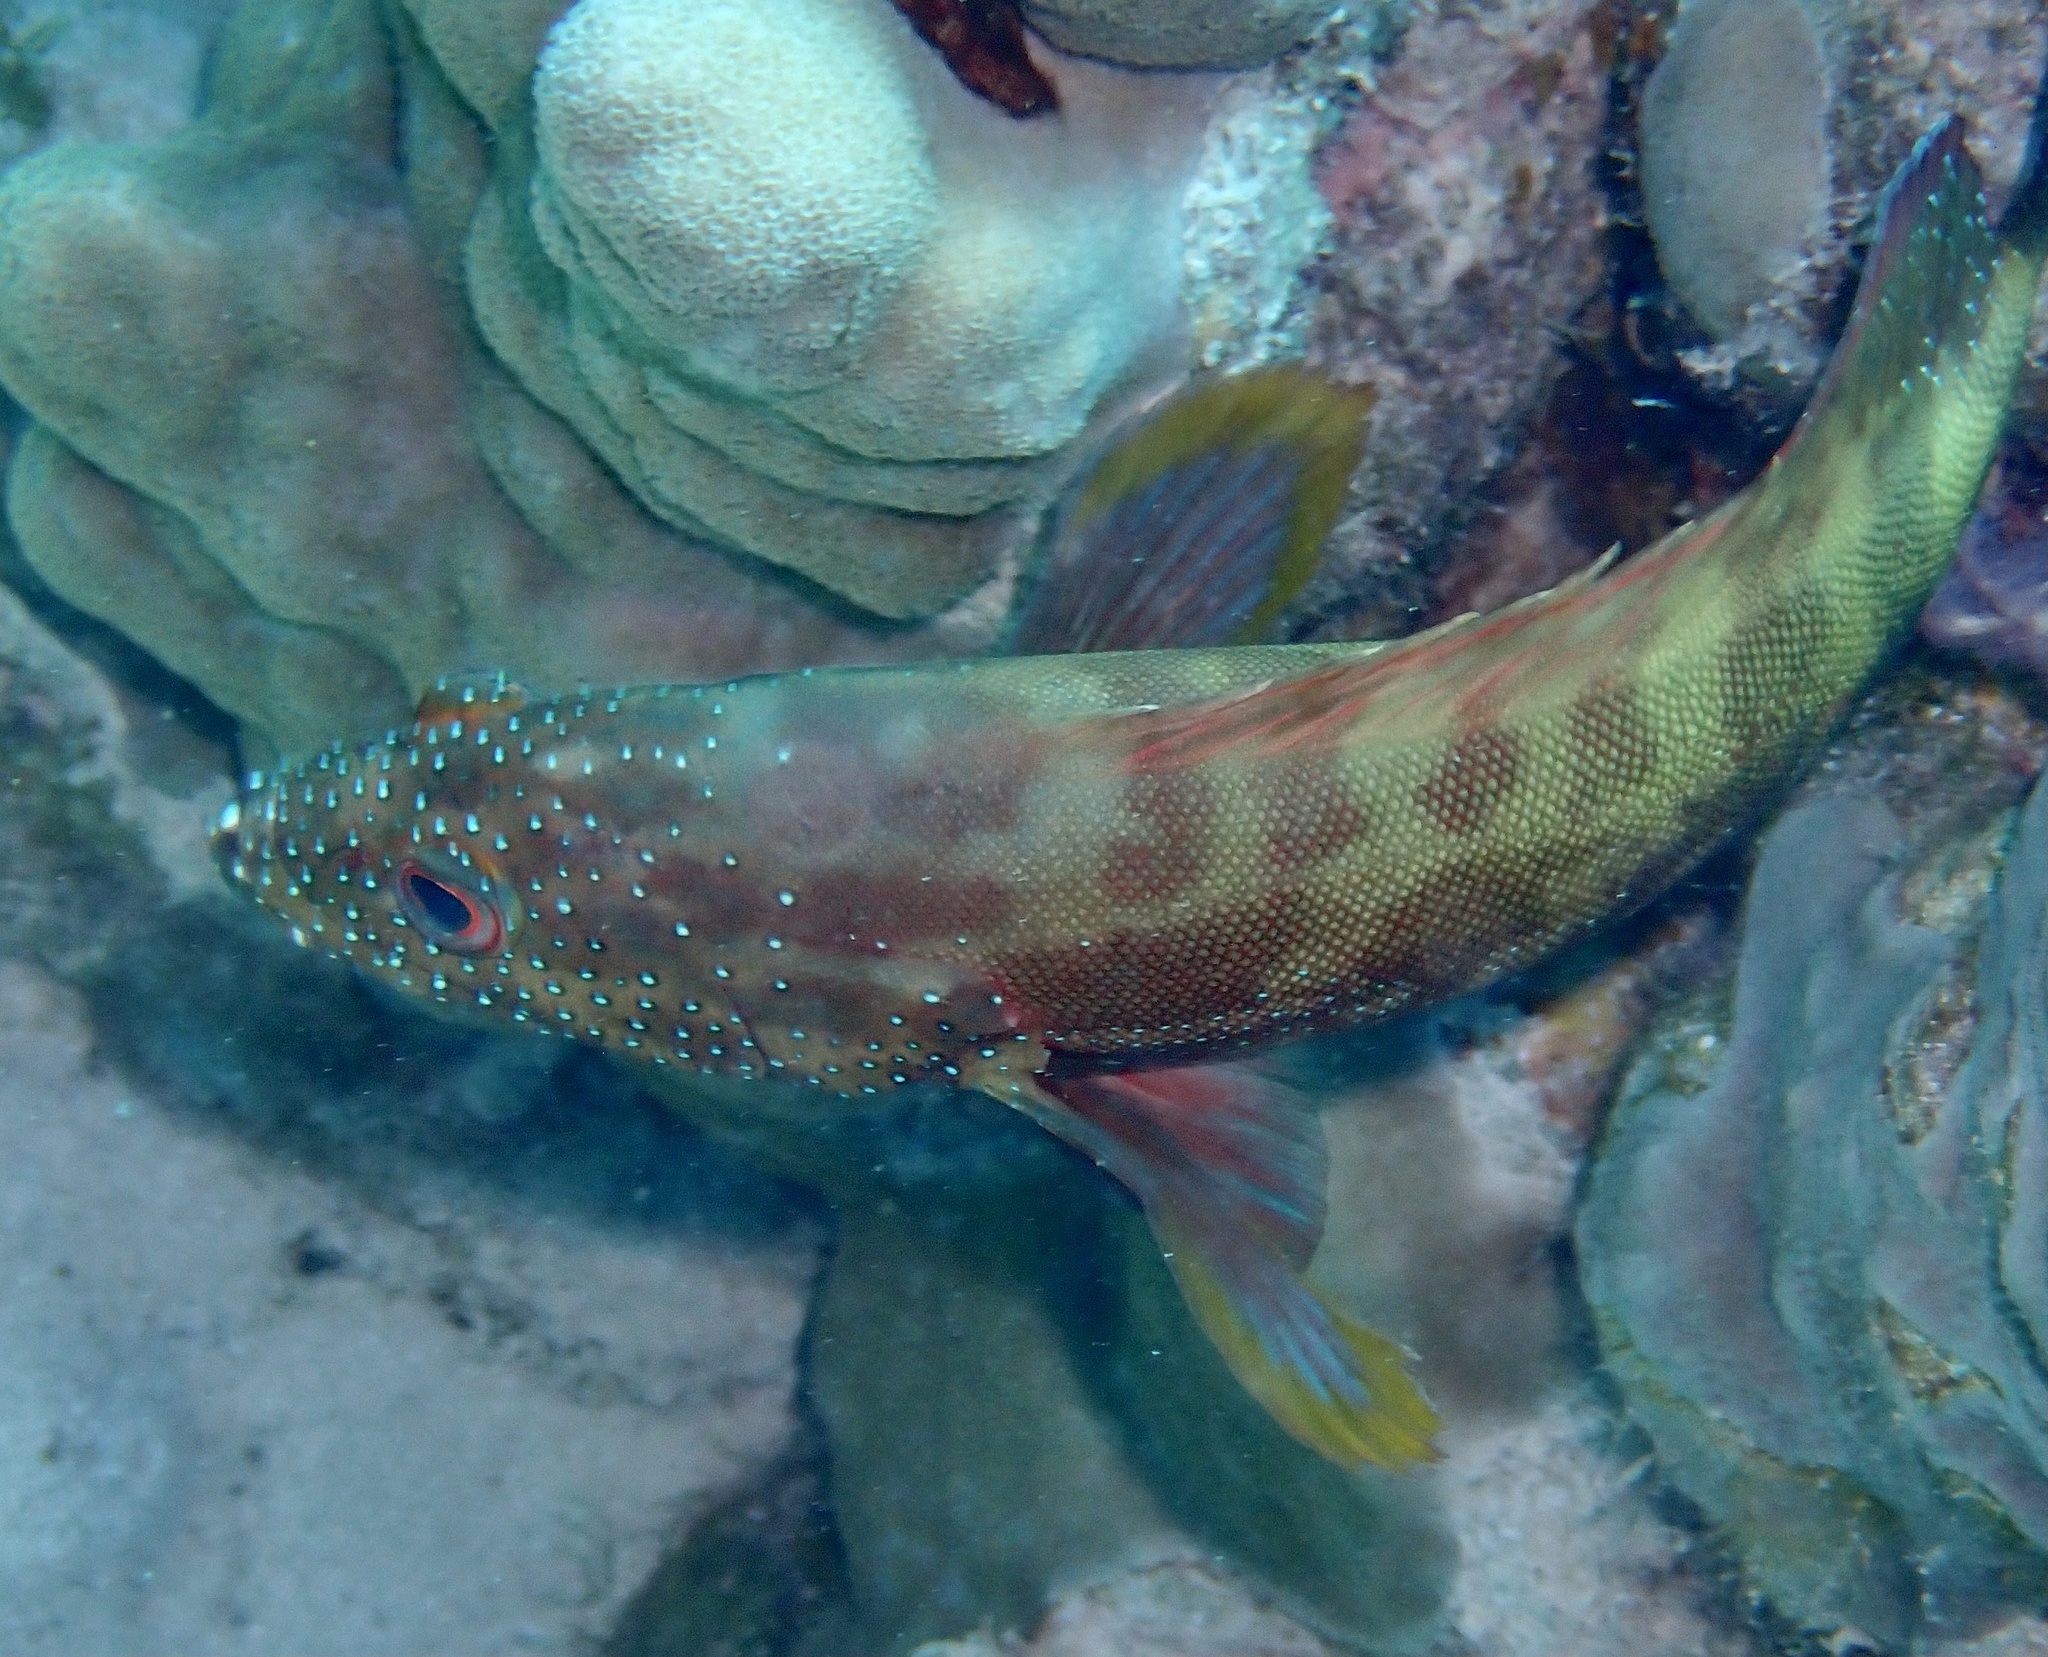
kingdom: Animalia
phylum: Chordata
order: Perciformes
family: Serranidae
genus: Cephalopholis
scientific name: Cephalopholis hemistiktos
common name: Halfspotted hind
